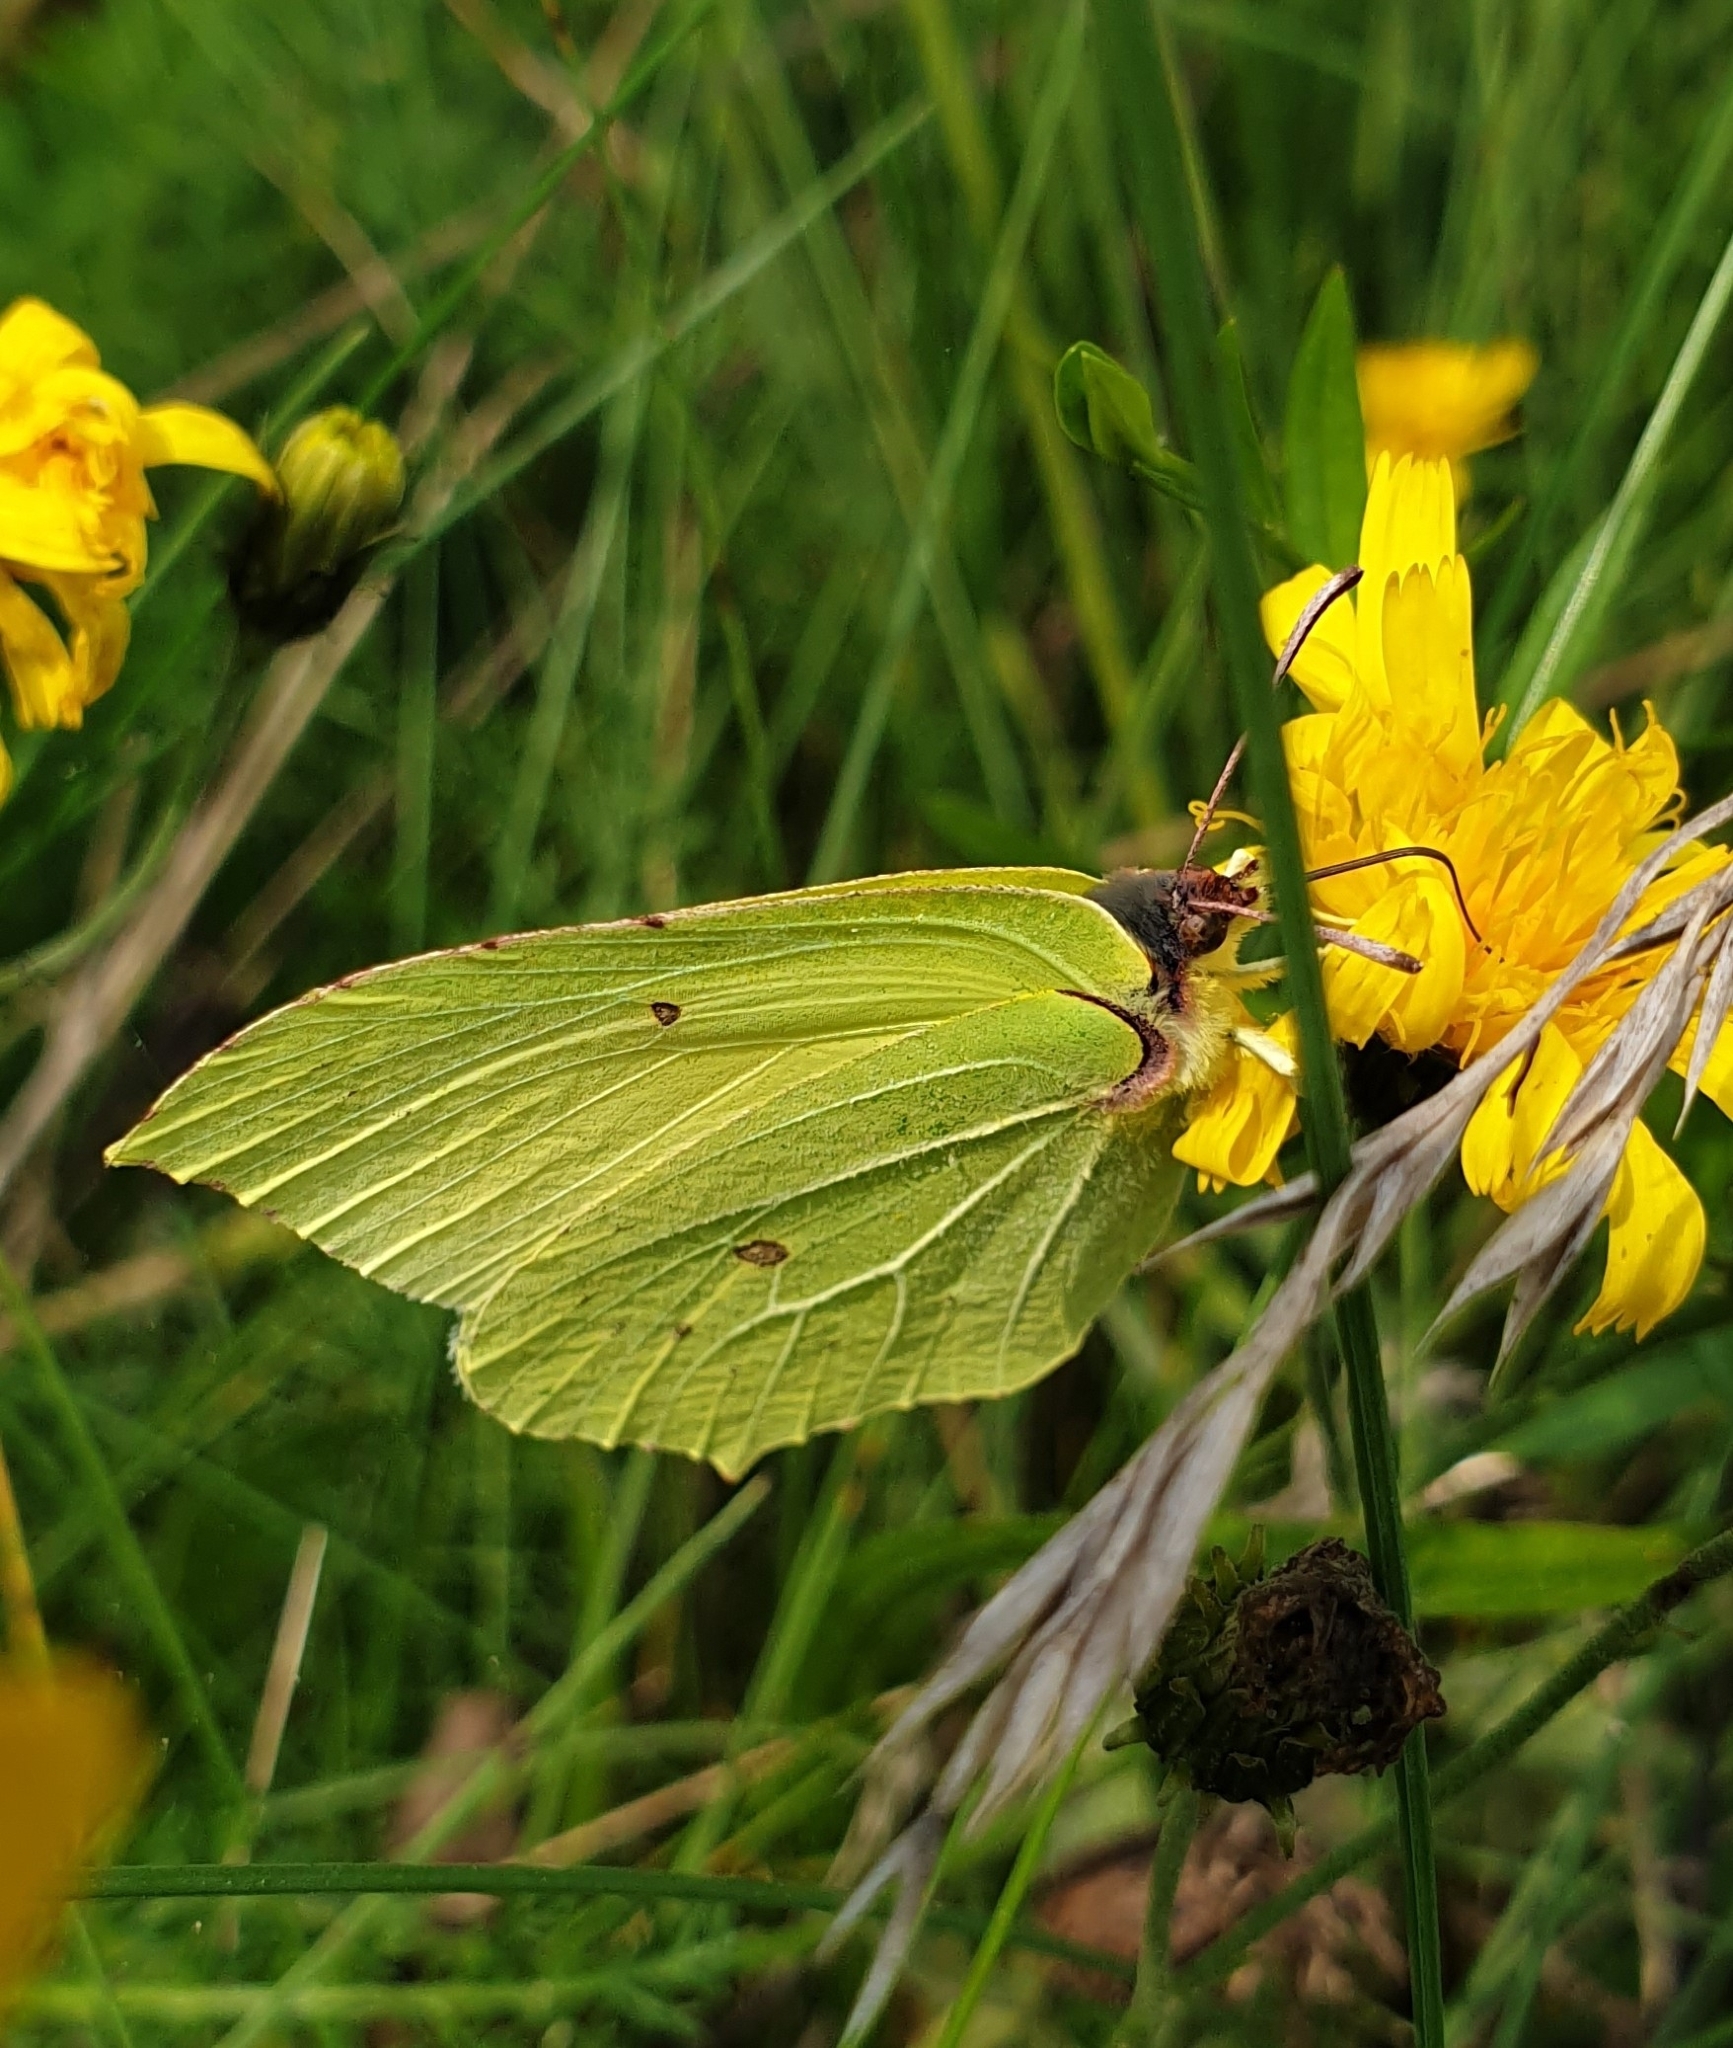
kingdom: Animalia
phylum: Arthropoda
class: Insecta
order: Lepidoptera
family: Pieridae
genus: Gonepteryx
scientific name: Gonepteryx rhamni
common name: Brimstone
